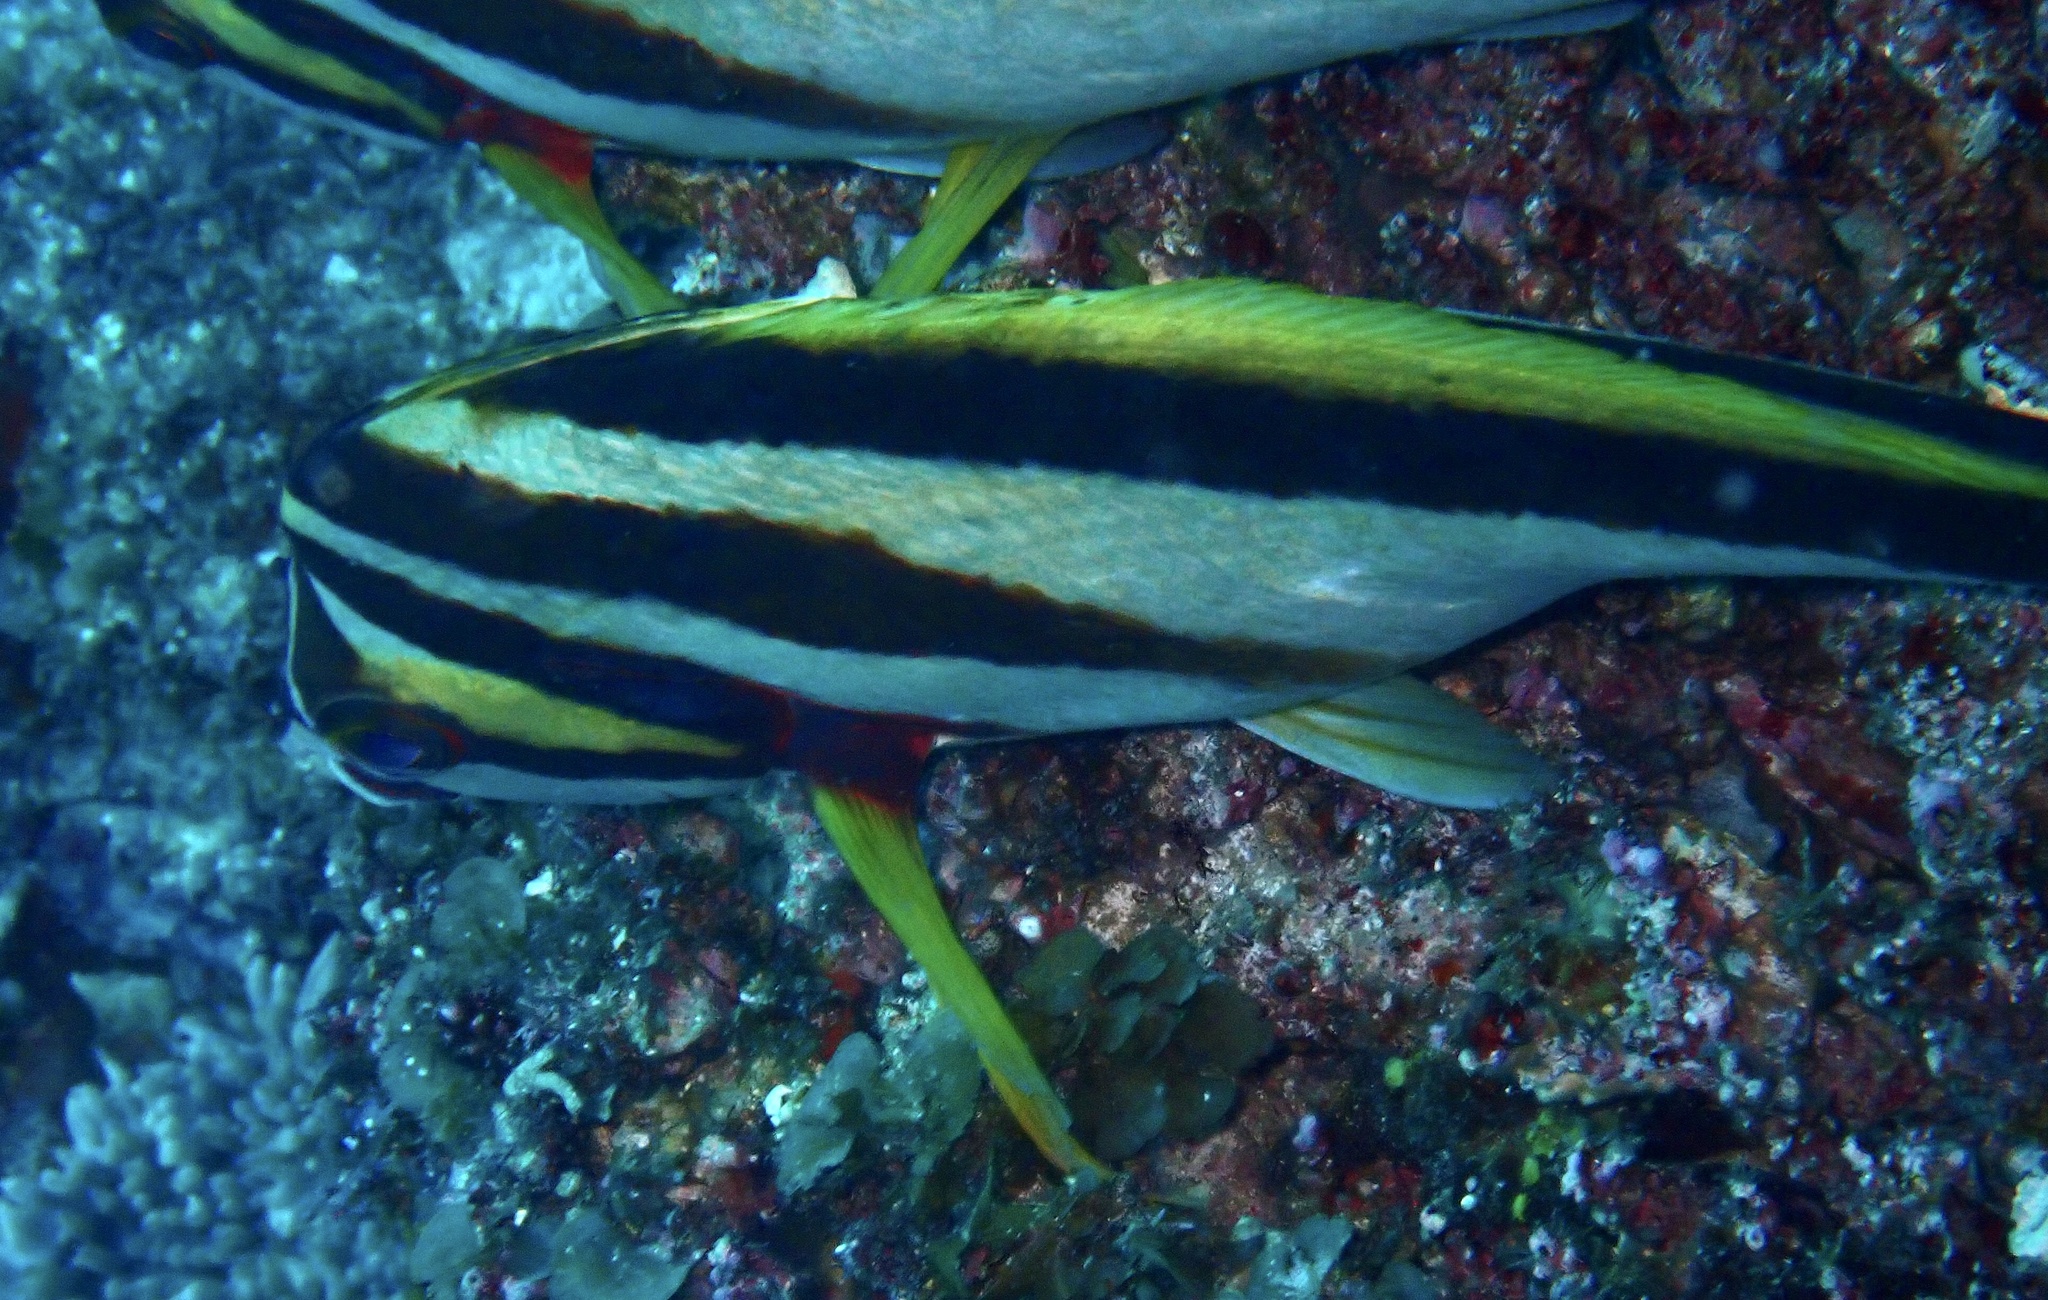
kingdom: Animalia
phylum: Chordata
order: Perciformes
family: Cheilodactylidae
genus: Cheilodactylus
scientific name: Cheilodactylus vestitus
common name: Crested morwong
